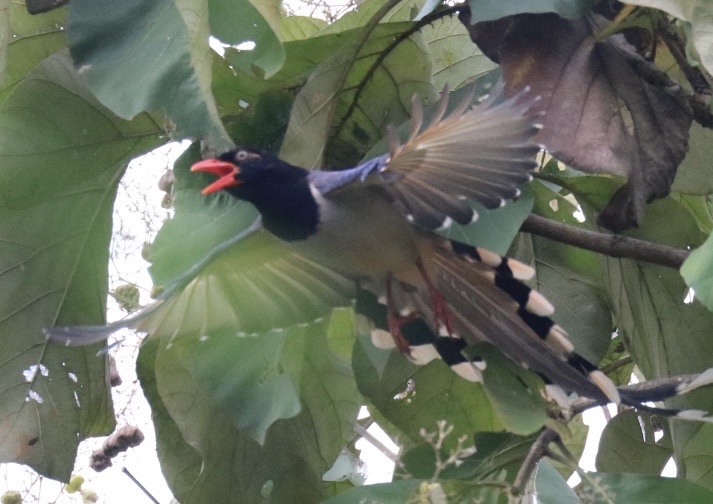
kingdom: Animalia
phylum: Chordata
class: Aves
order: Passeriformes
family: Corvidae
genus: Urocissa
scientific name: Urocissa erythroryncha
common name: Red-billed blue magpie
